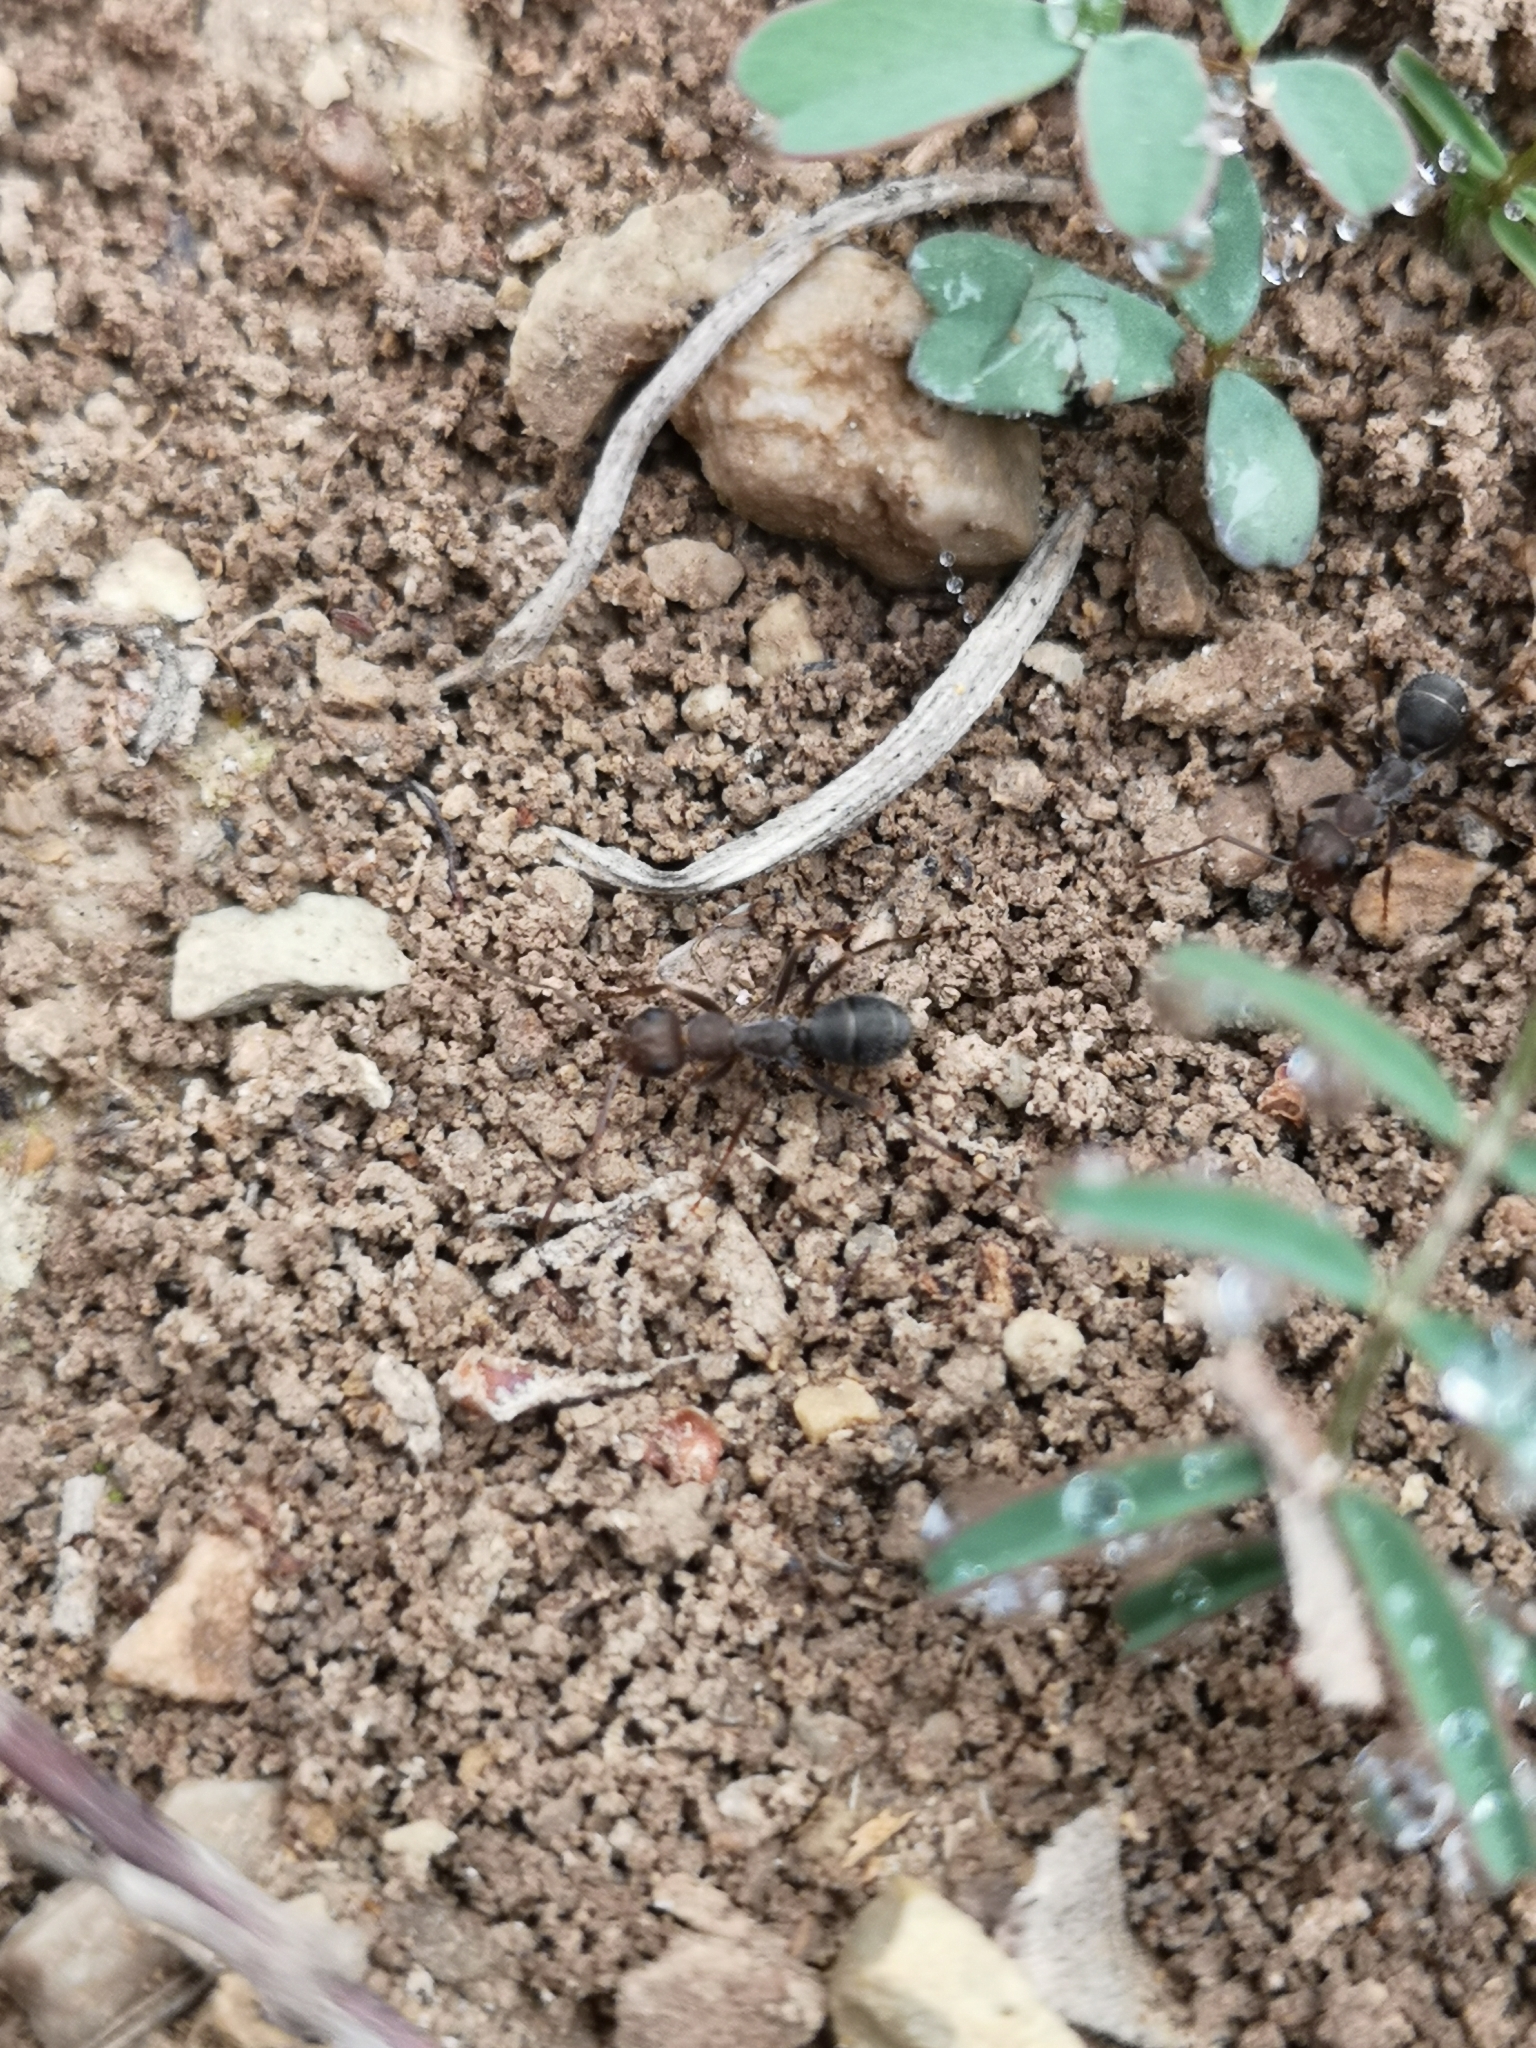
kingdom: Animalia
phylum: Arthropoda
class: Insecta
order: Hymenoptera
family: Formicidae
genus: Formica
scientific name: Formica subrufa
